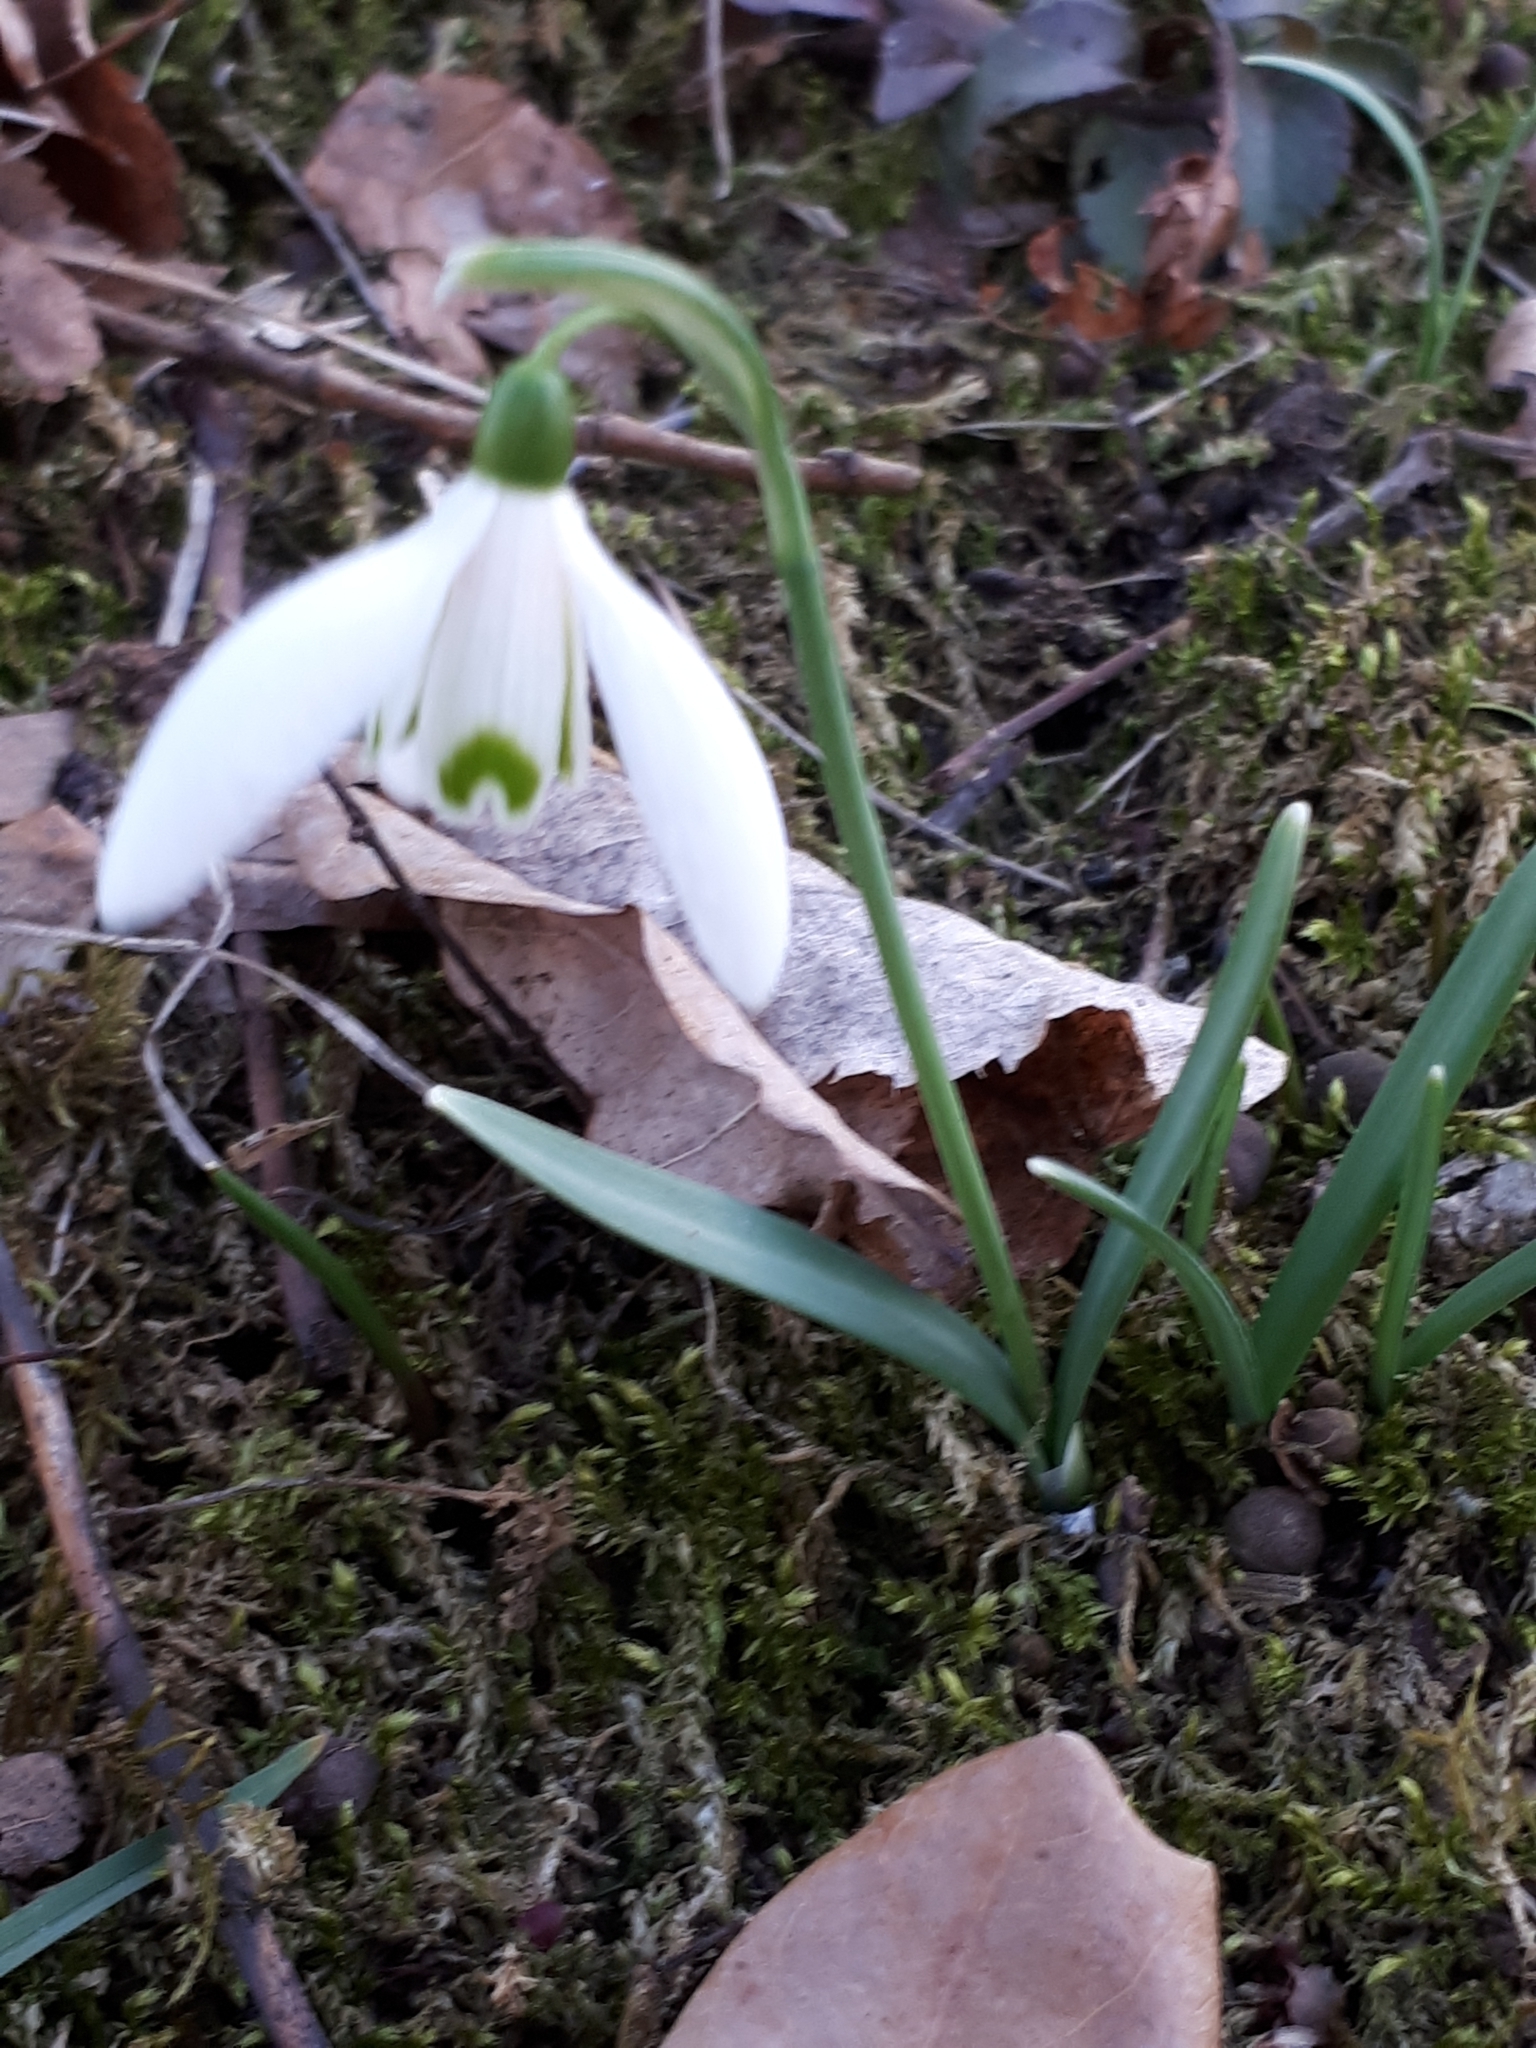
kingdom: Plantae
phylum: Tracheophyta
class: Liliopsida
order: Asparagales
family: Amaryllidaceae
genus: Galanthus
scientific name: Galanthus nivalis
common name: Snowdrop
